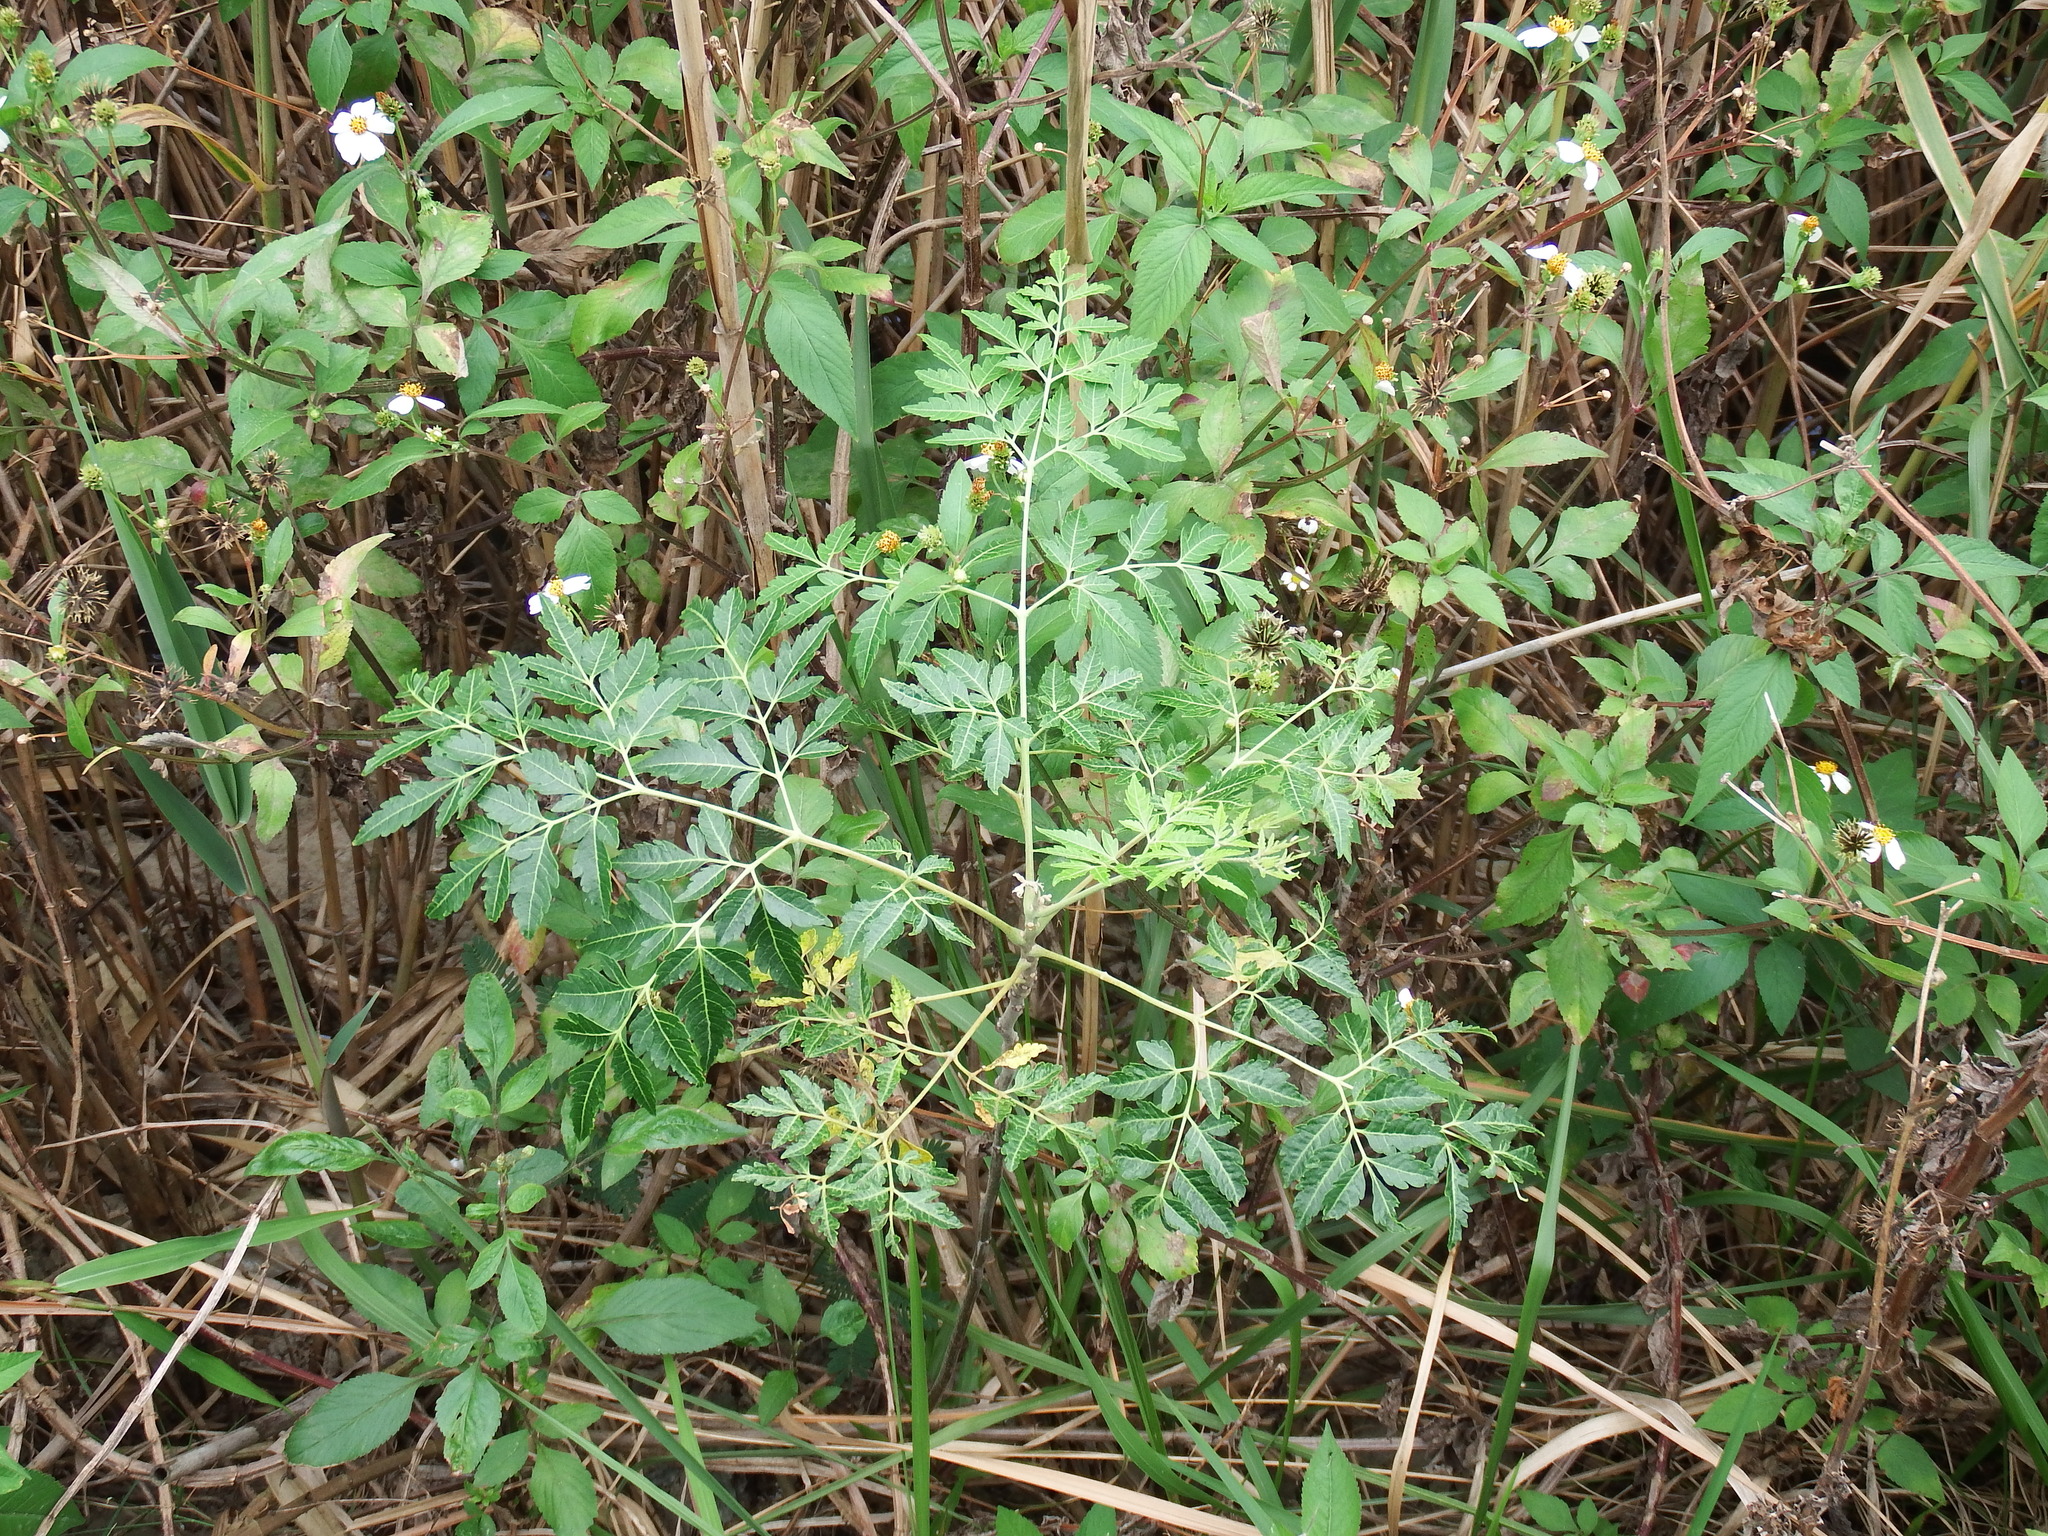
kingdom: Plantae
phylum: Tracheophyta
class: Magnoliopsida
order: Sapindales
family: Meliaceae
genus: Melia
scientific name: Melia azedarach
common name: Chinaberrytree
